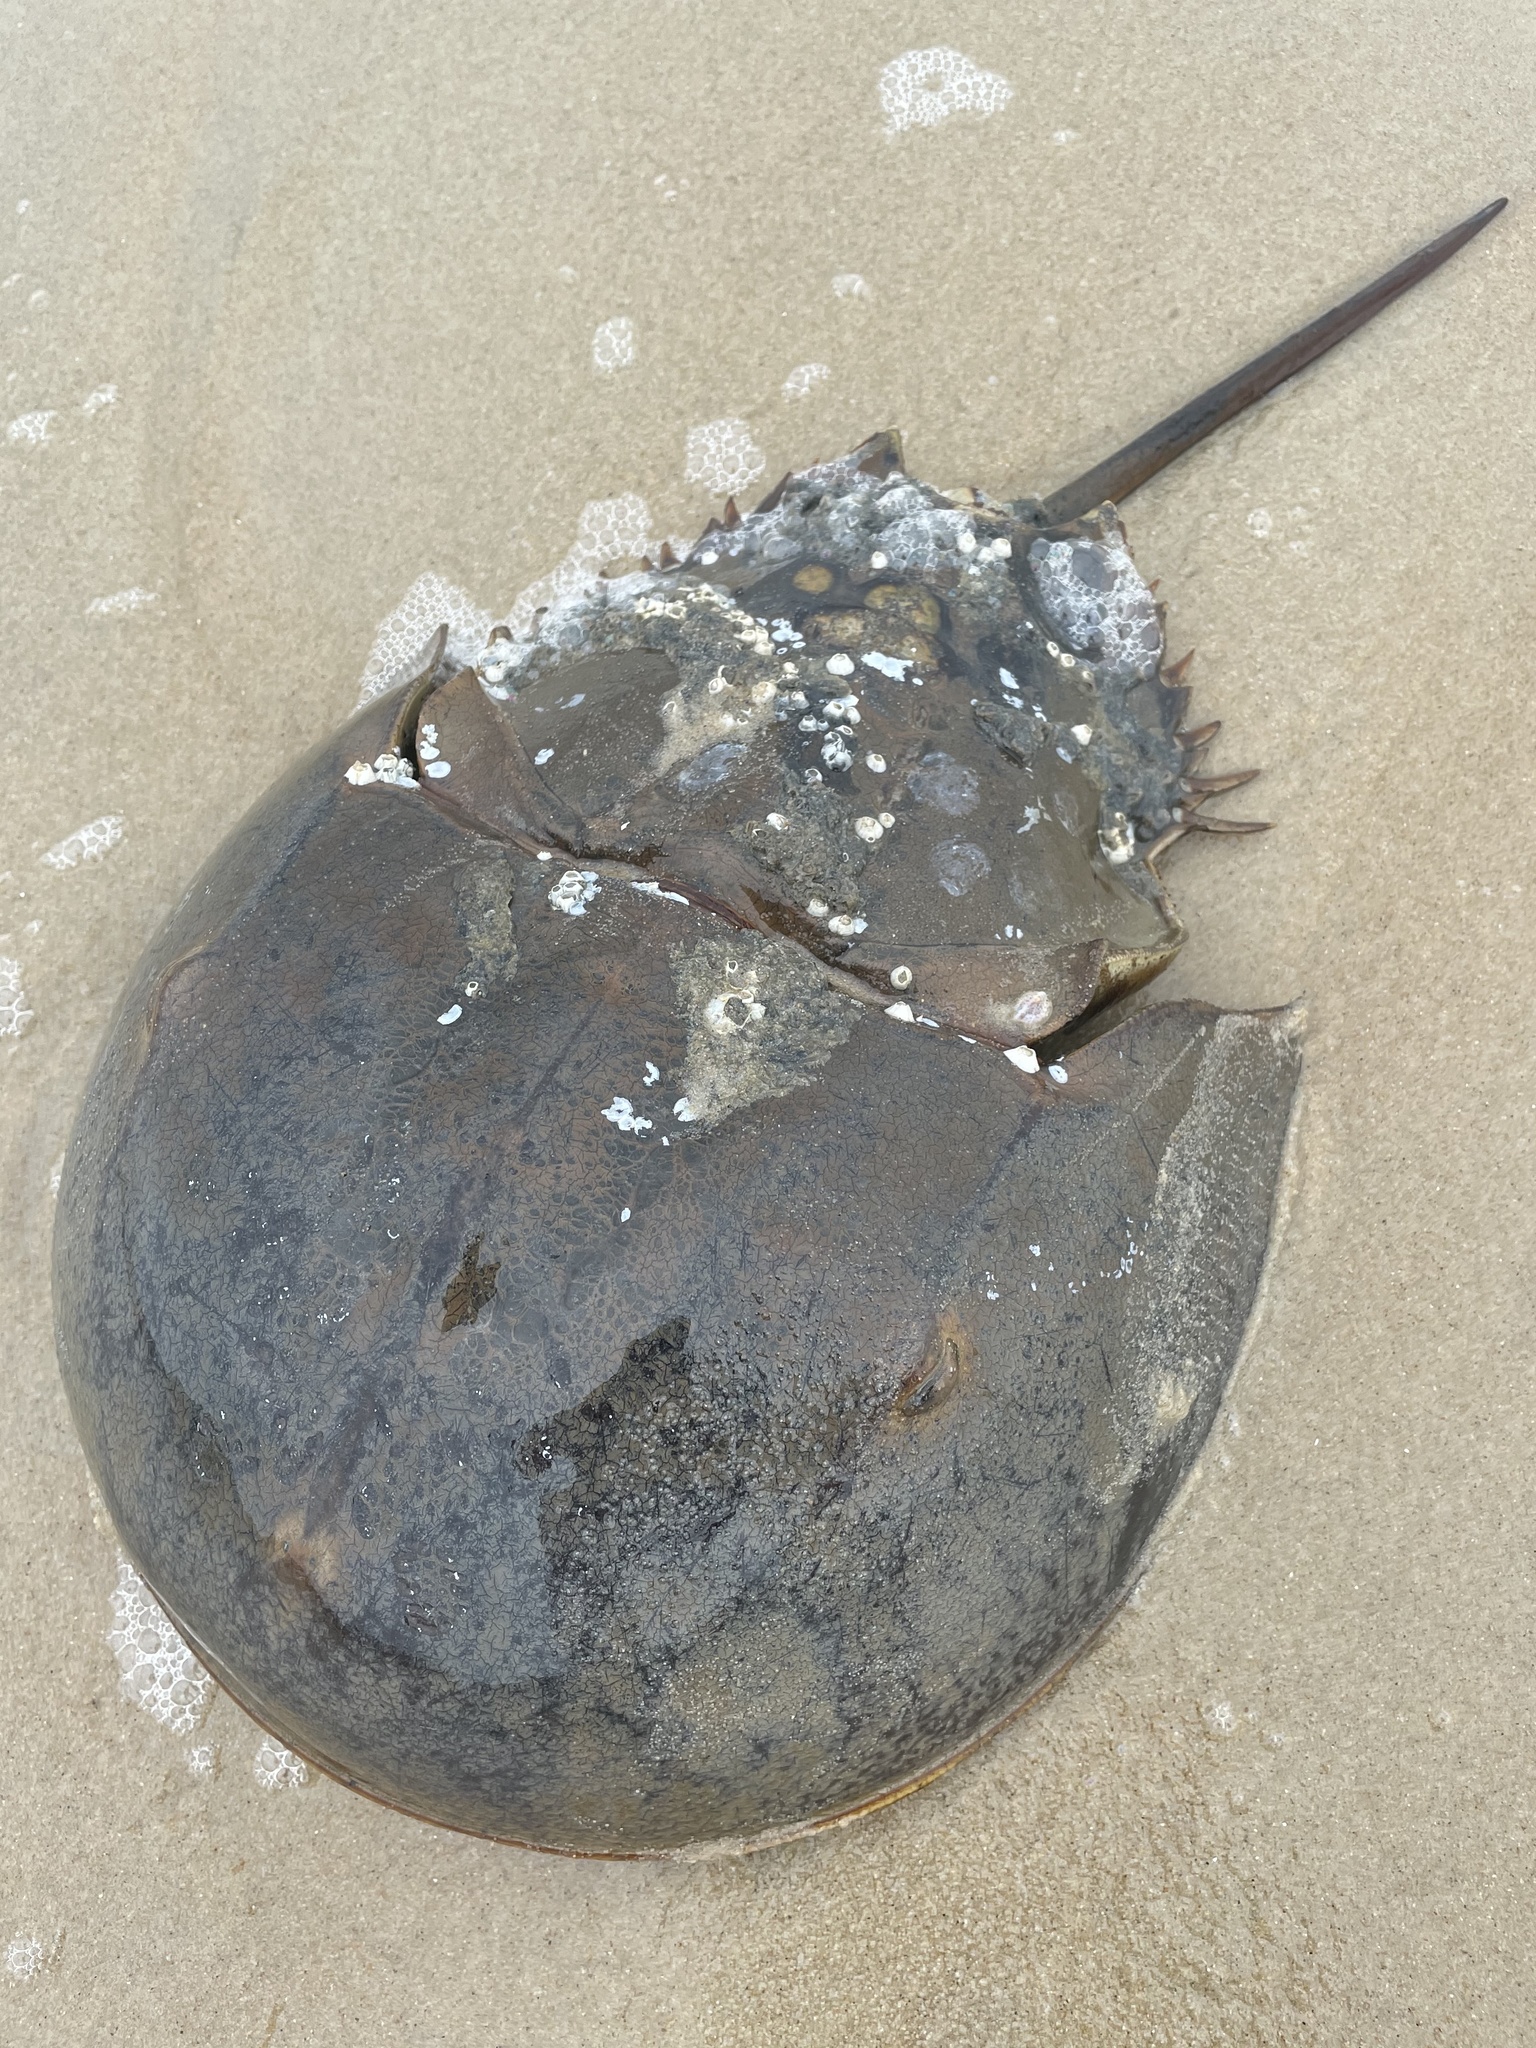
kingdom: Animalia
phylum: Arthropoda
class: Merostomata
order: Xiphosurida
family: Limulidae
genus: Limulus
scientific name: Limulus polyphemus
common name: Horseshoe crab
